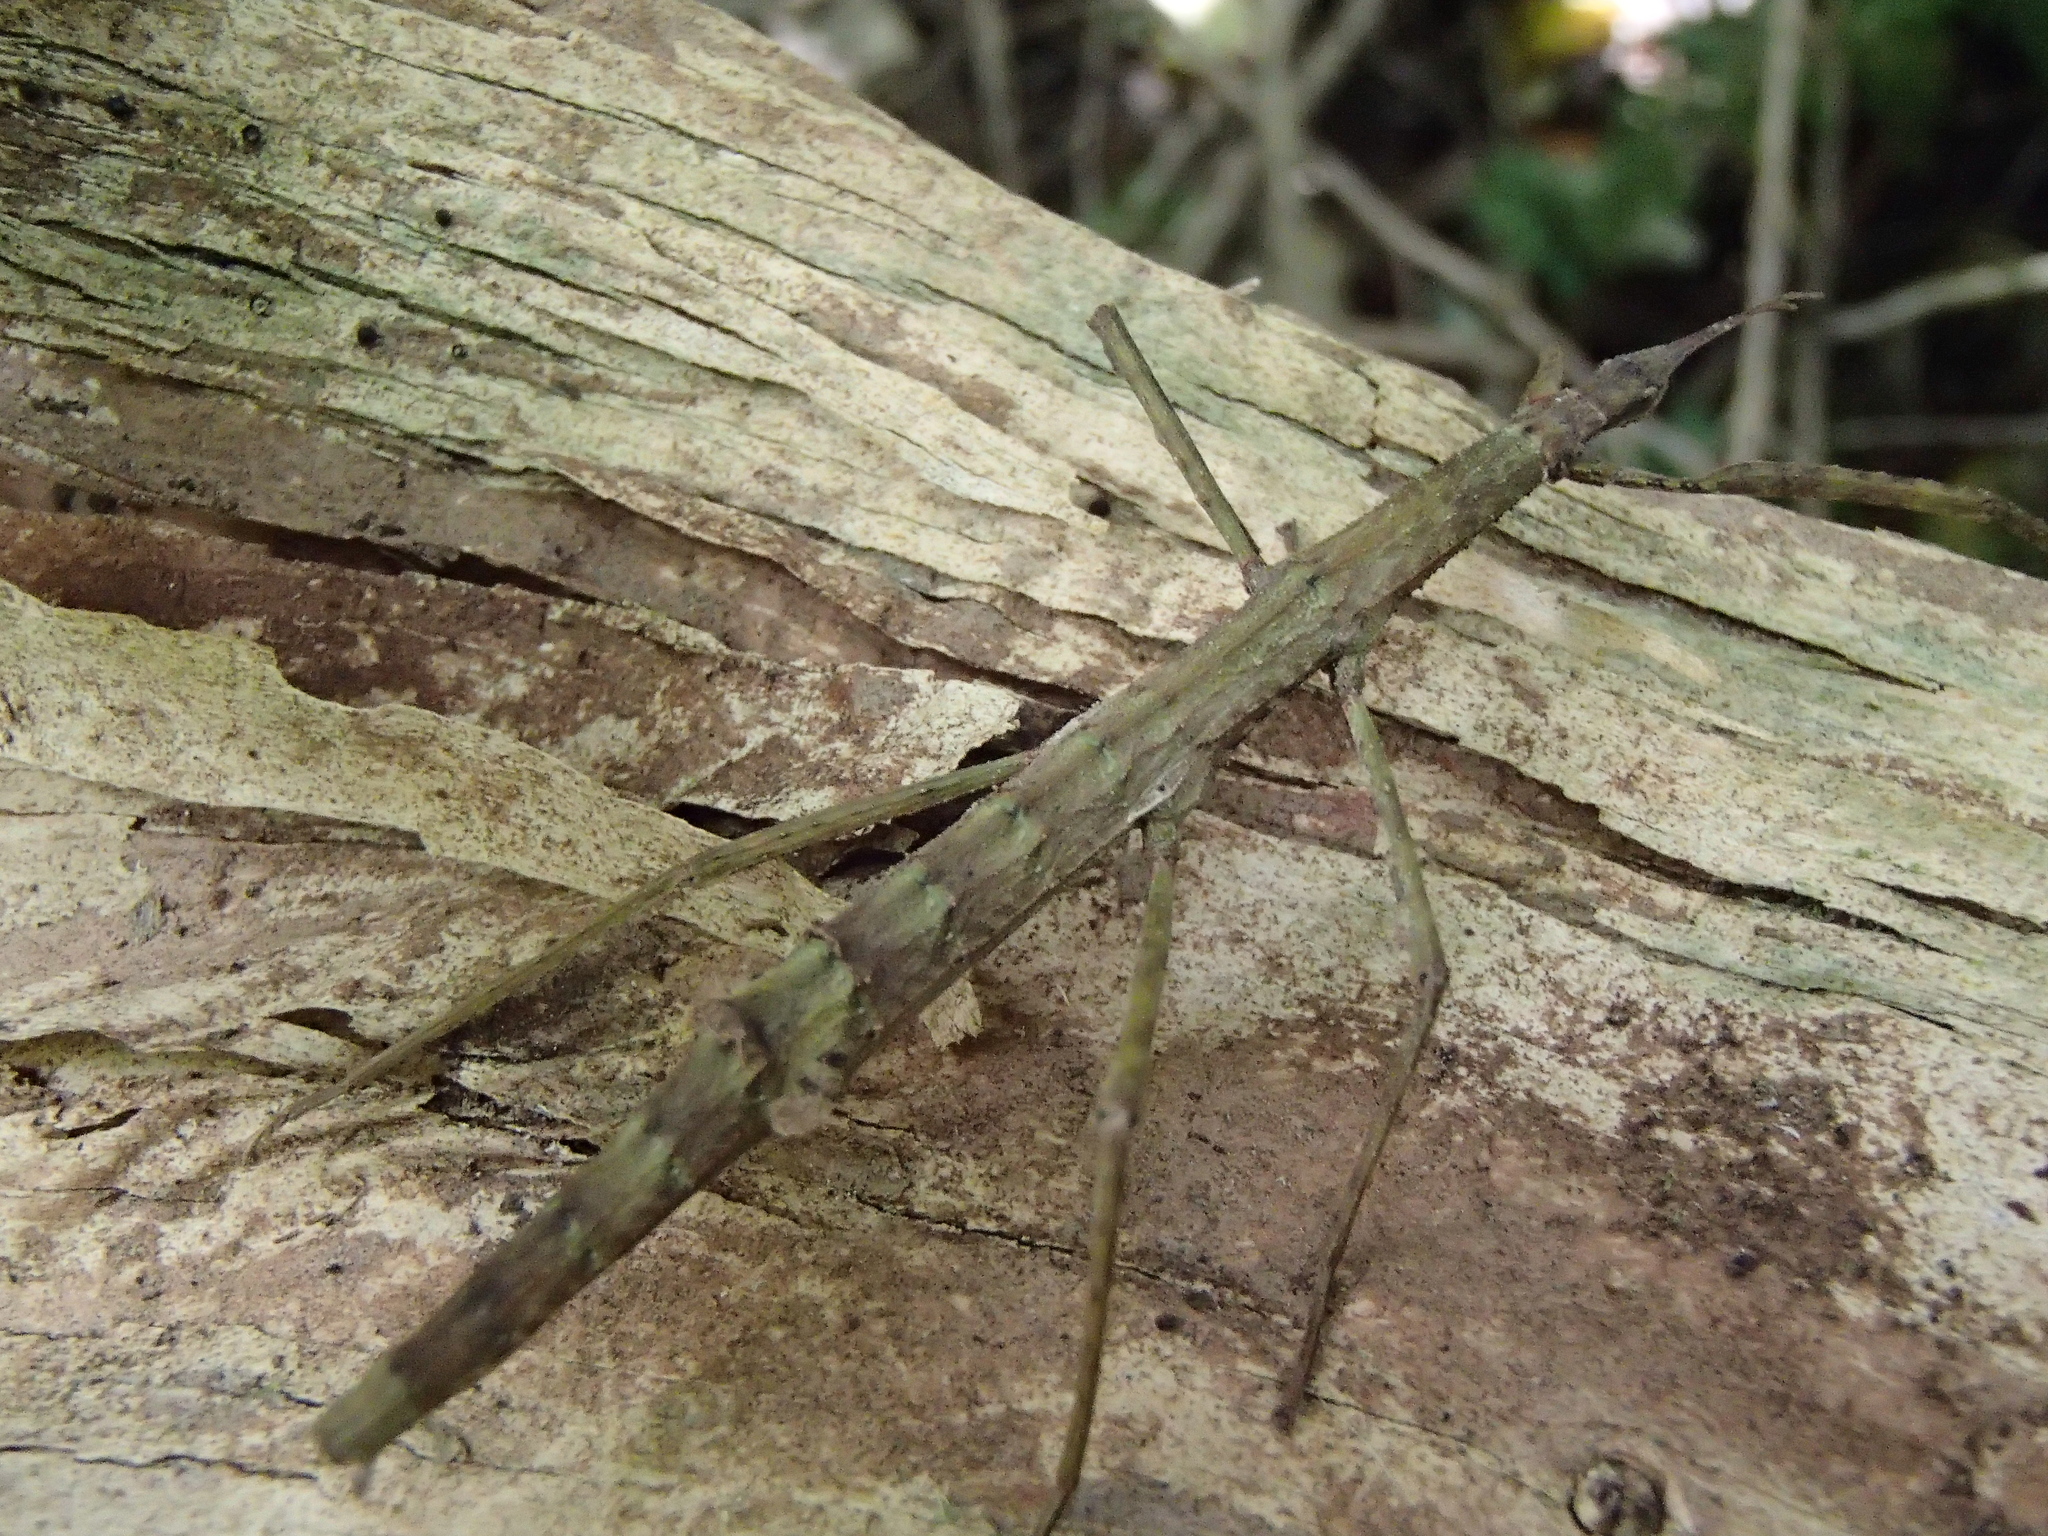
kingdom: Animalia
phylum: Arthropoda
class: Insecta
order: Phasmida
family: Phasmatidae
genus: Tectarchus
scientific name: Tectarchus salebrosus
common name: Lesser rough-skinned stick insect
